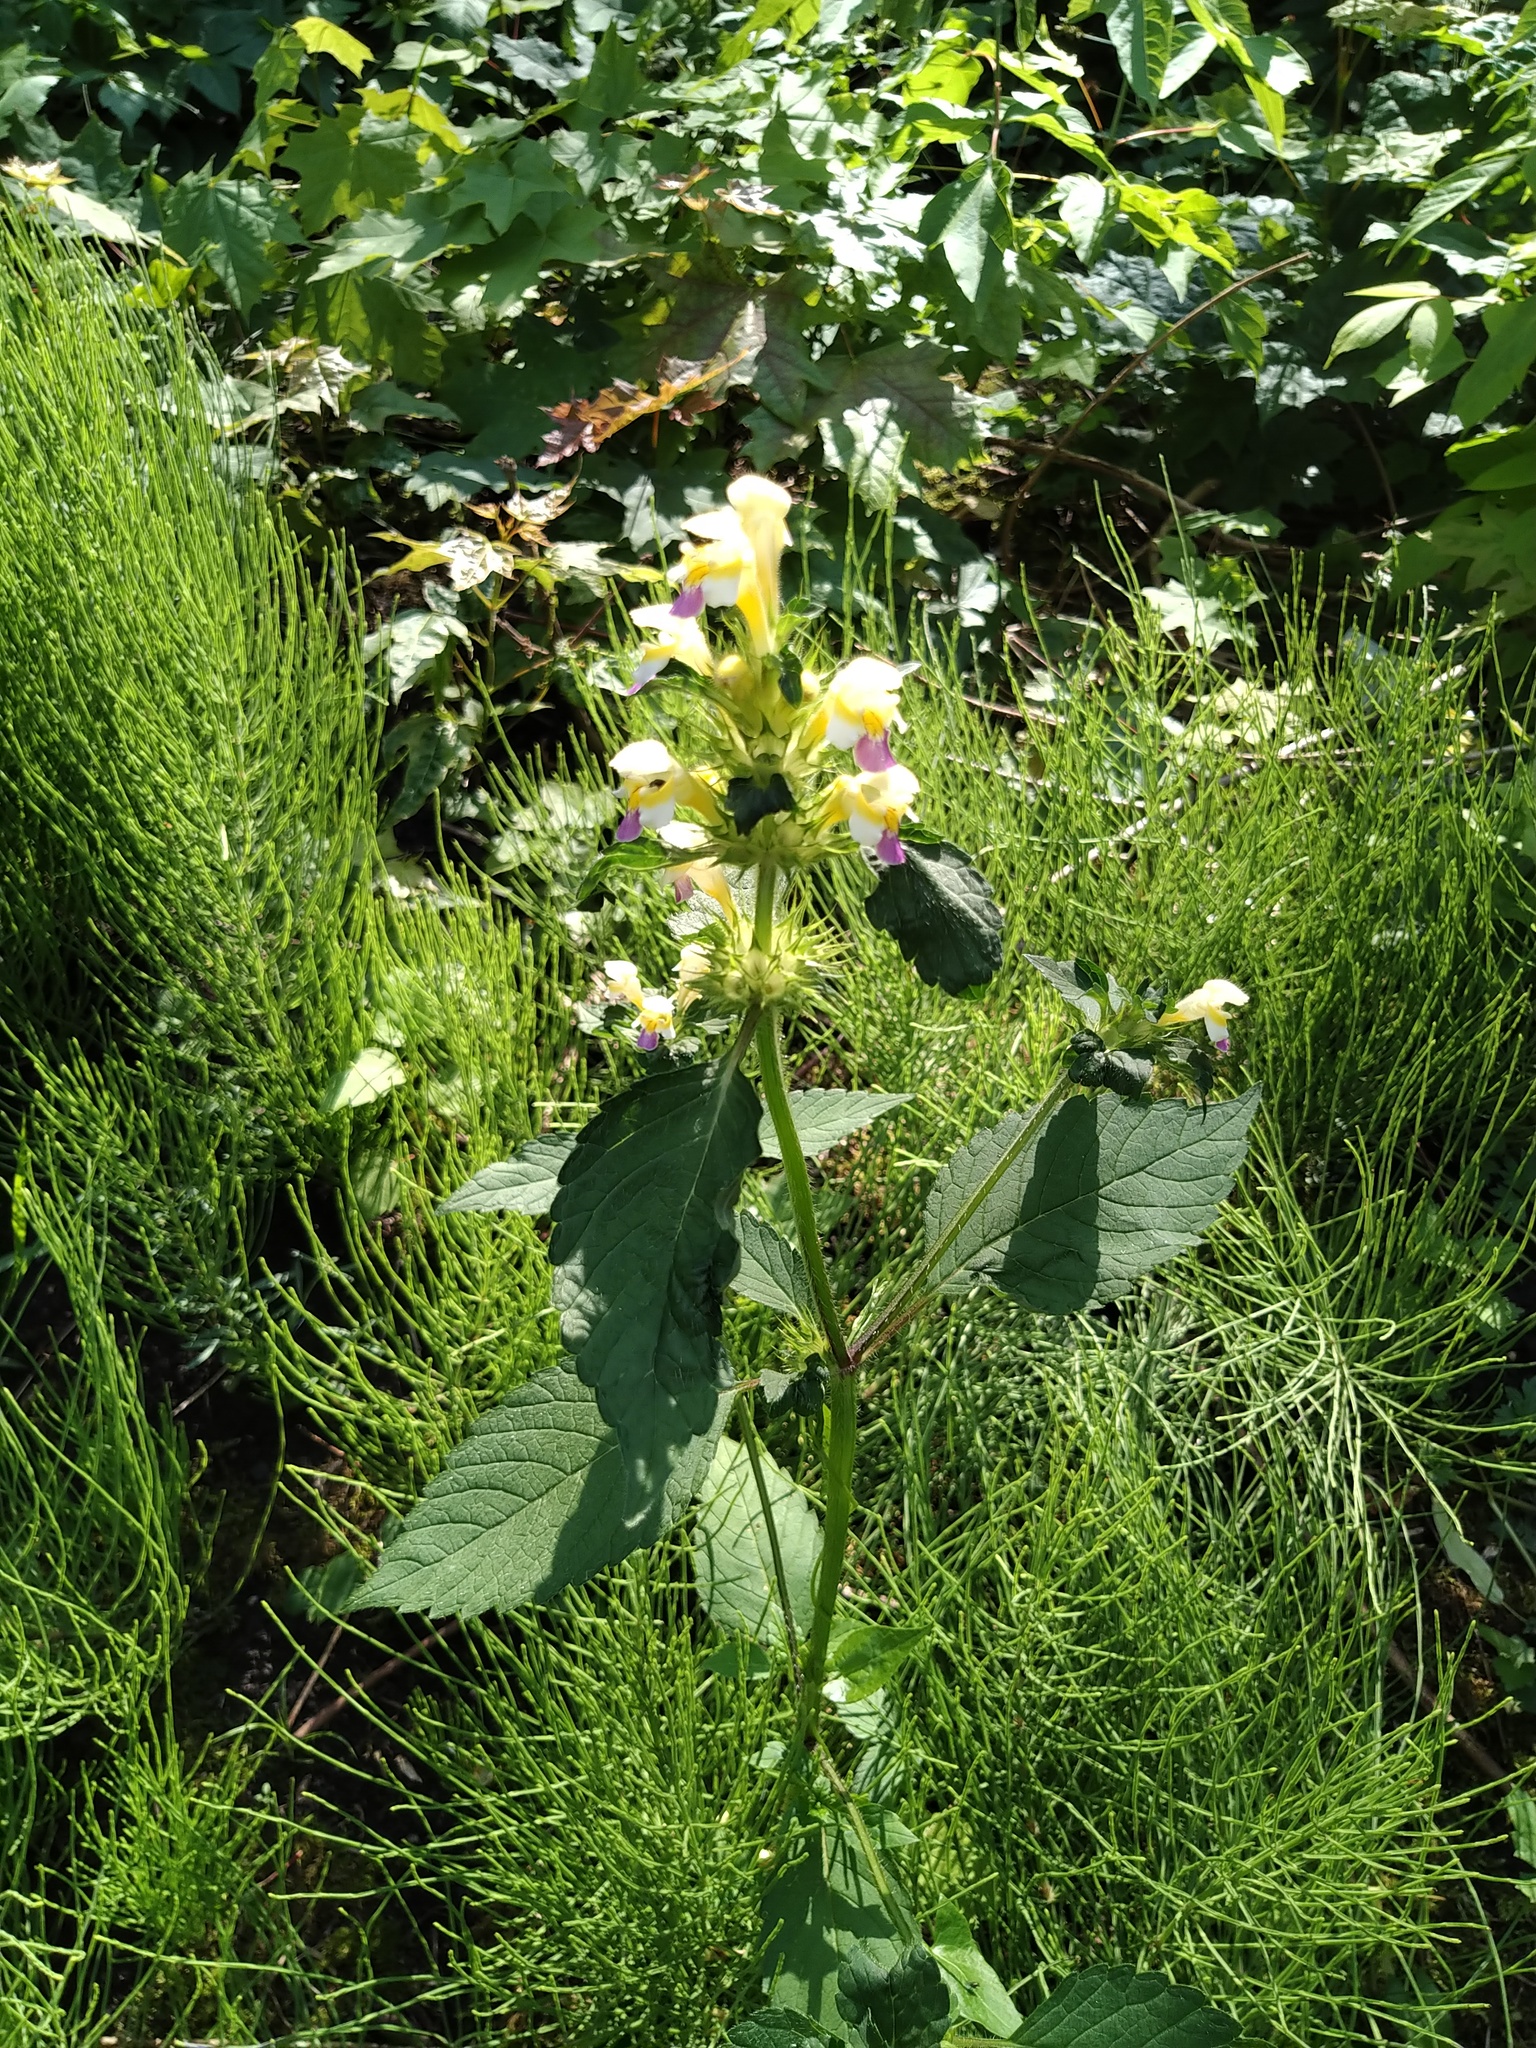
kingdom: Plantae
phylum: Tracheophyta
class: Magnoliopsida
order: Lamiales
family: Lamiaceae
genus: Galeopsis
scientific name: Galeopsis speciosa
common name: Large-flowered hemp-nettle
